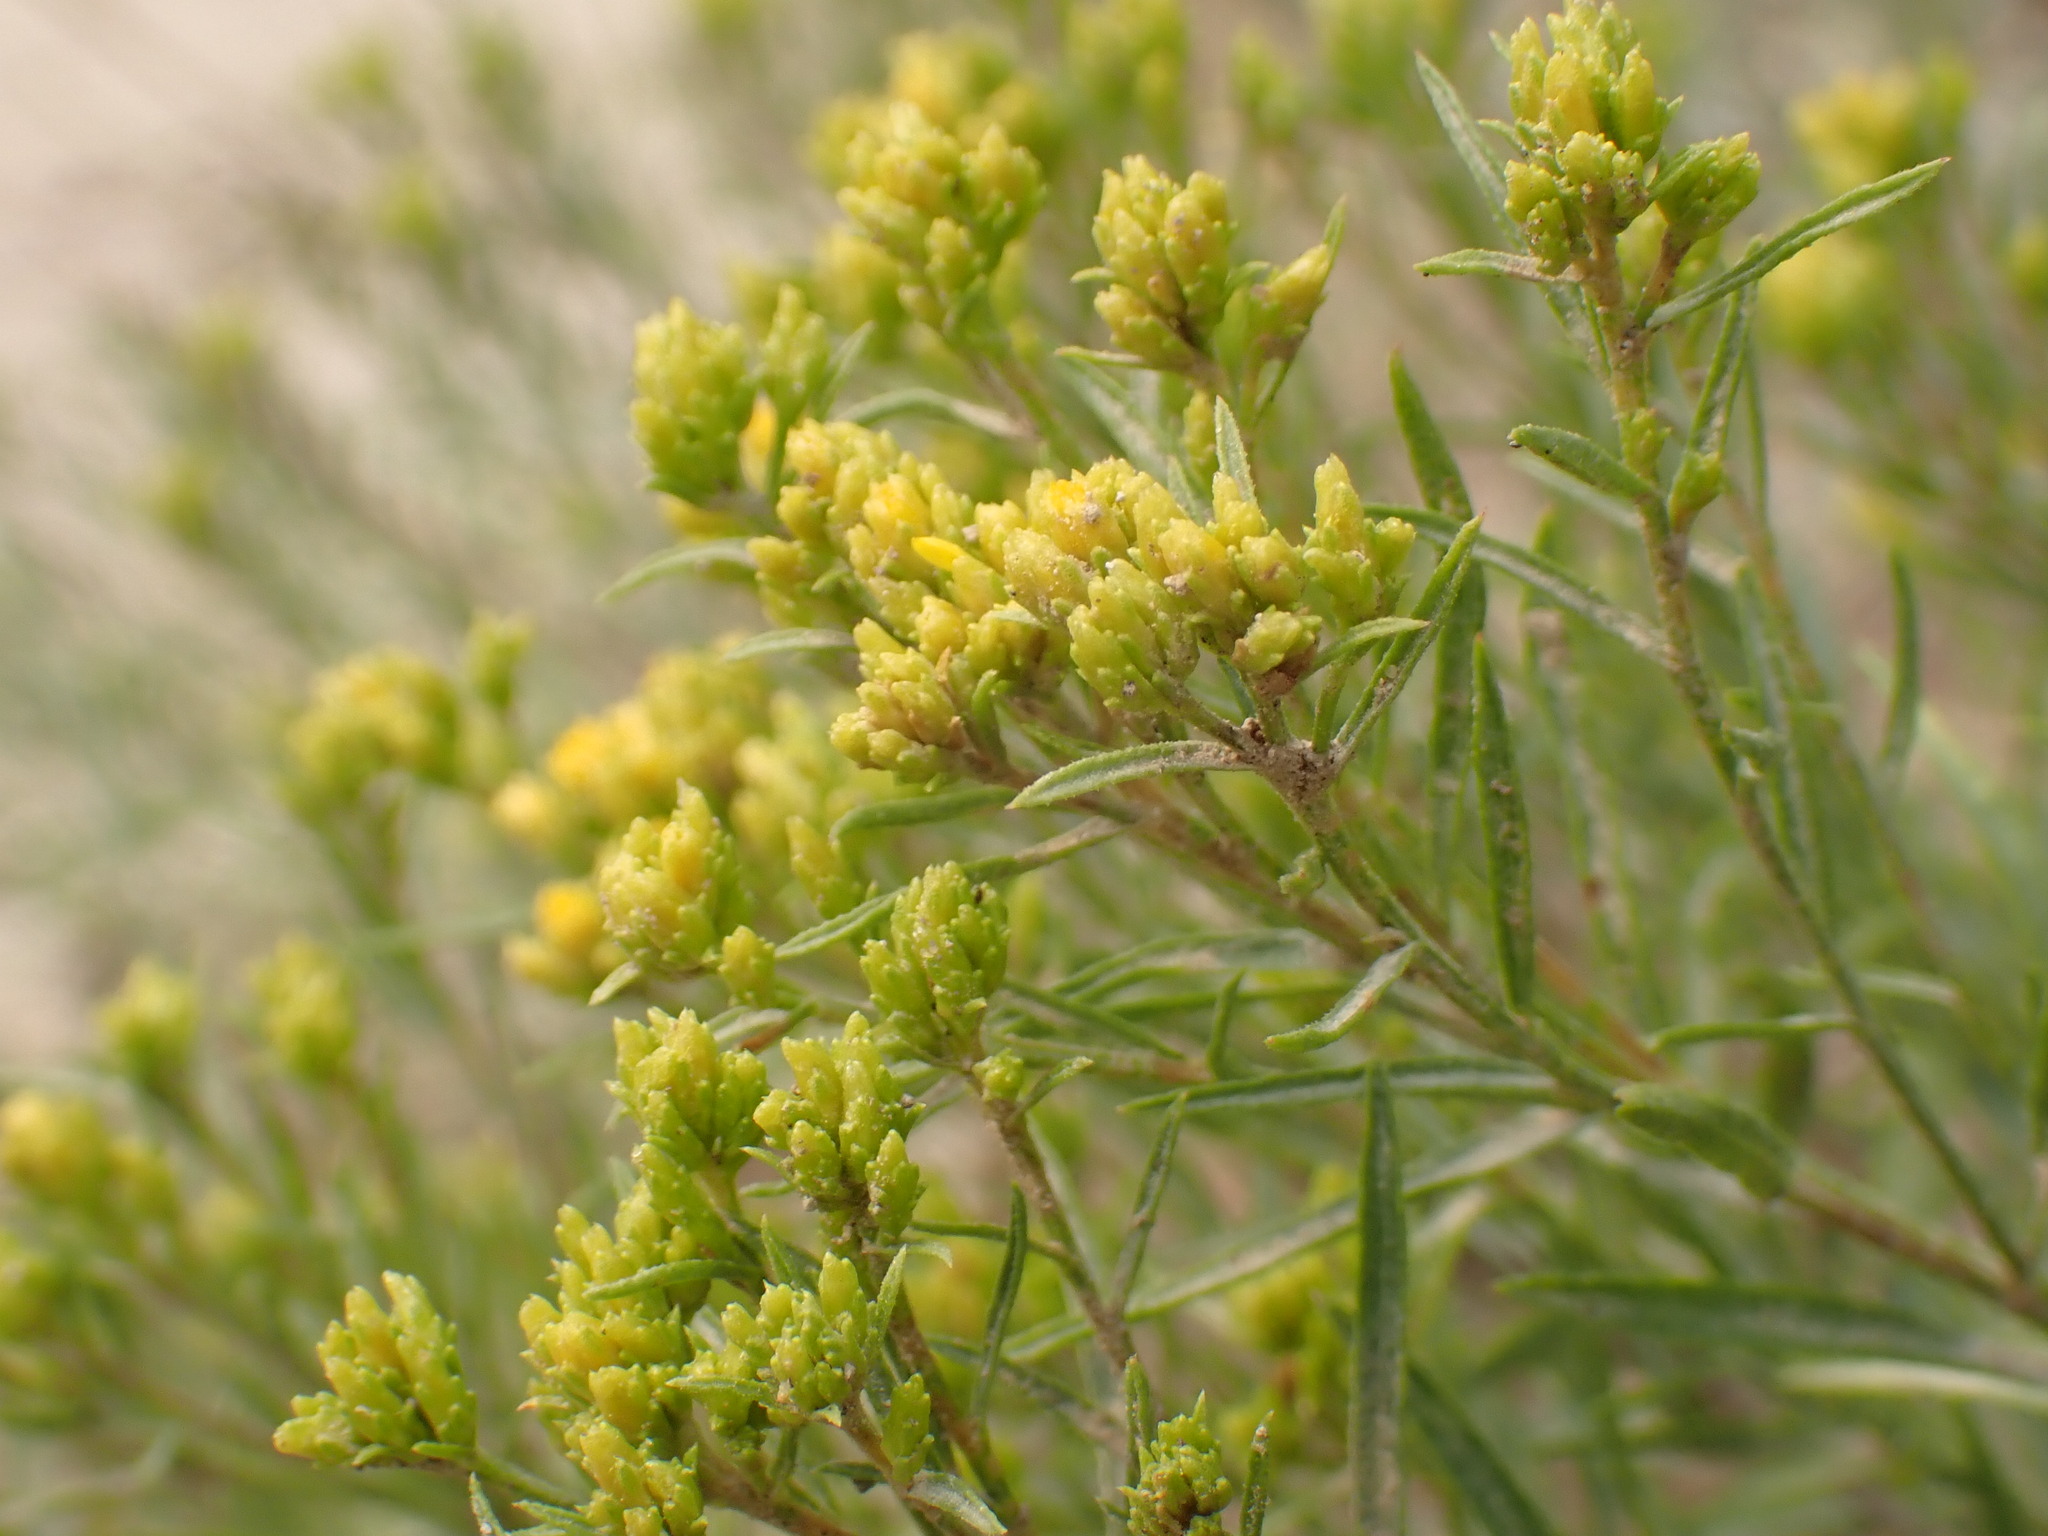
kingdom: Plantae
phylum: Tracheophyta
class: Magnoliopsida
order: Asterales
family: Asteraceae
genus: Gutierrezia
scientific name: Gutierrezia sarothrae
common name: Broom snakeweed
